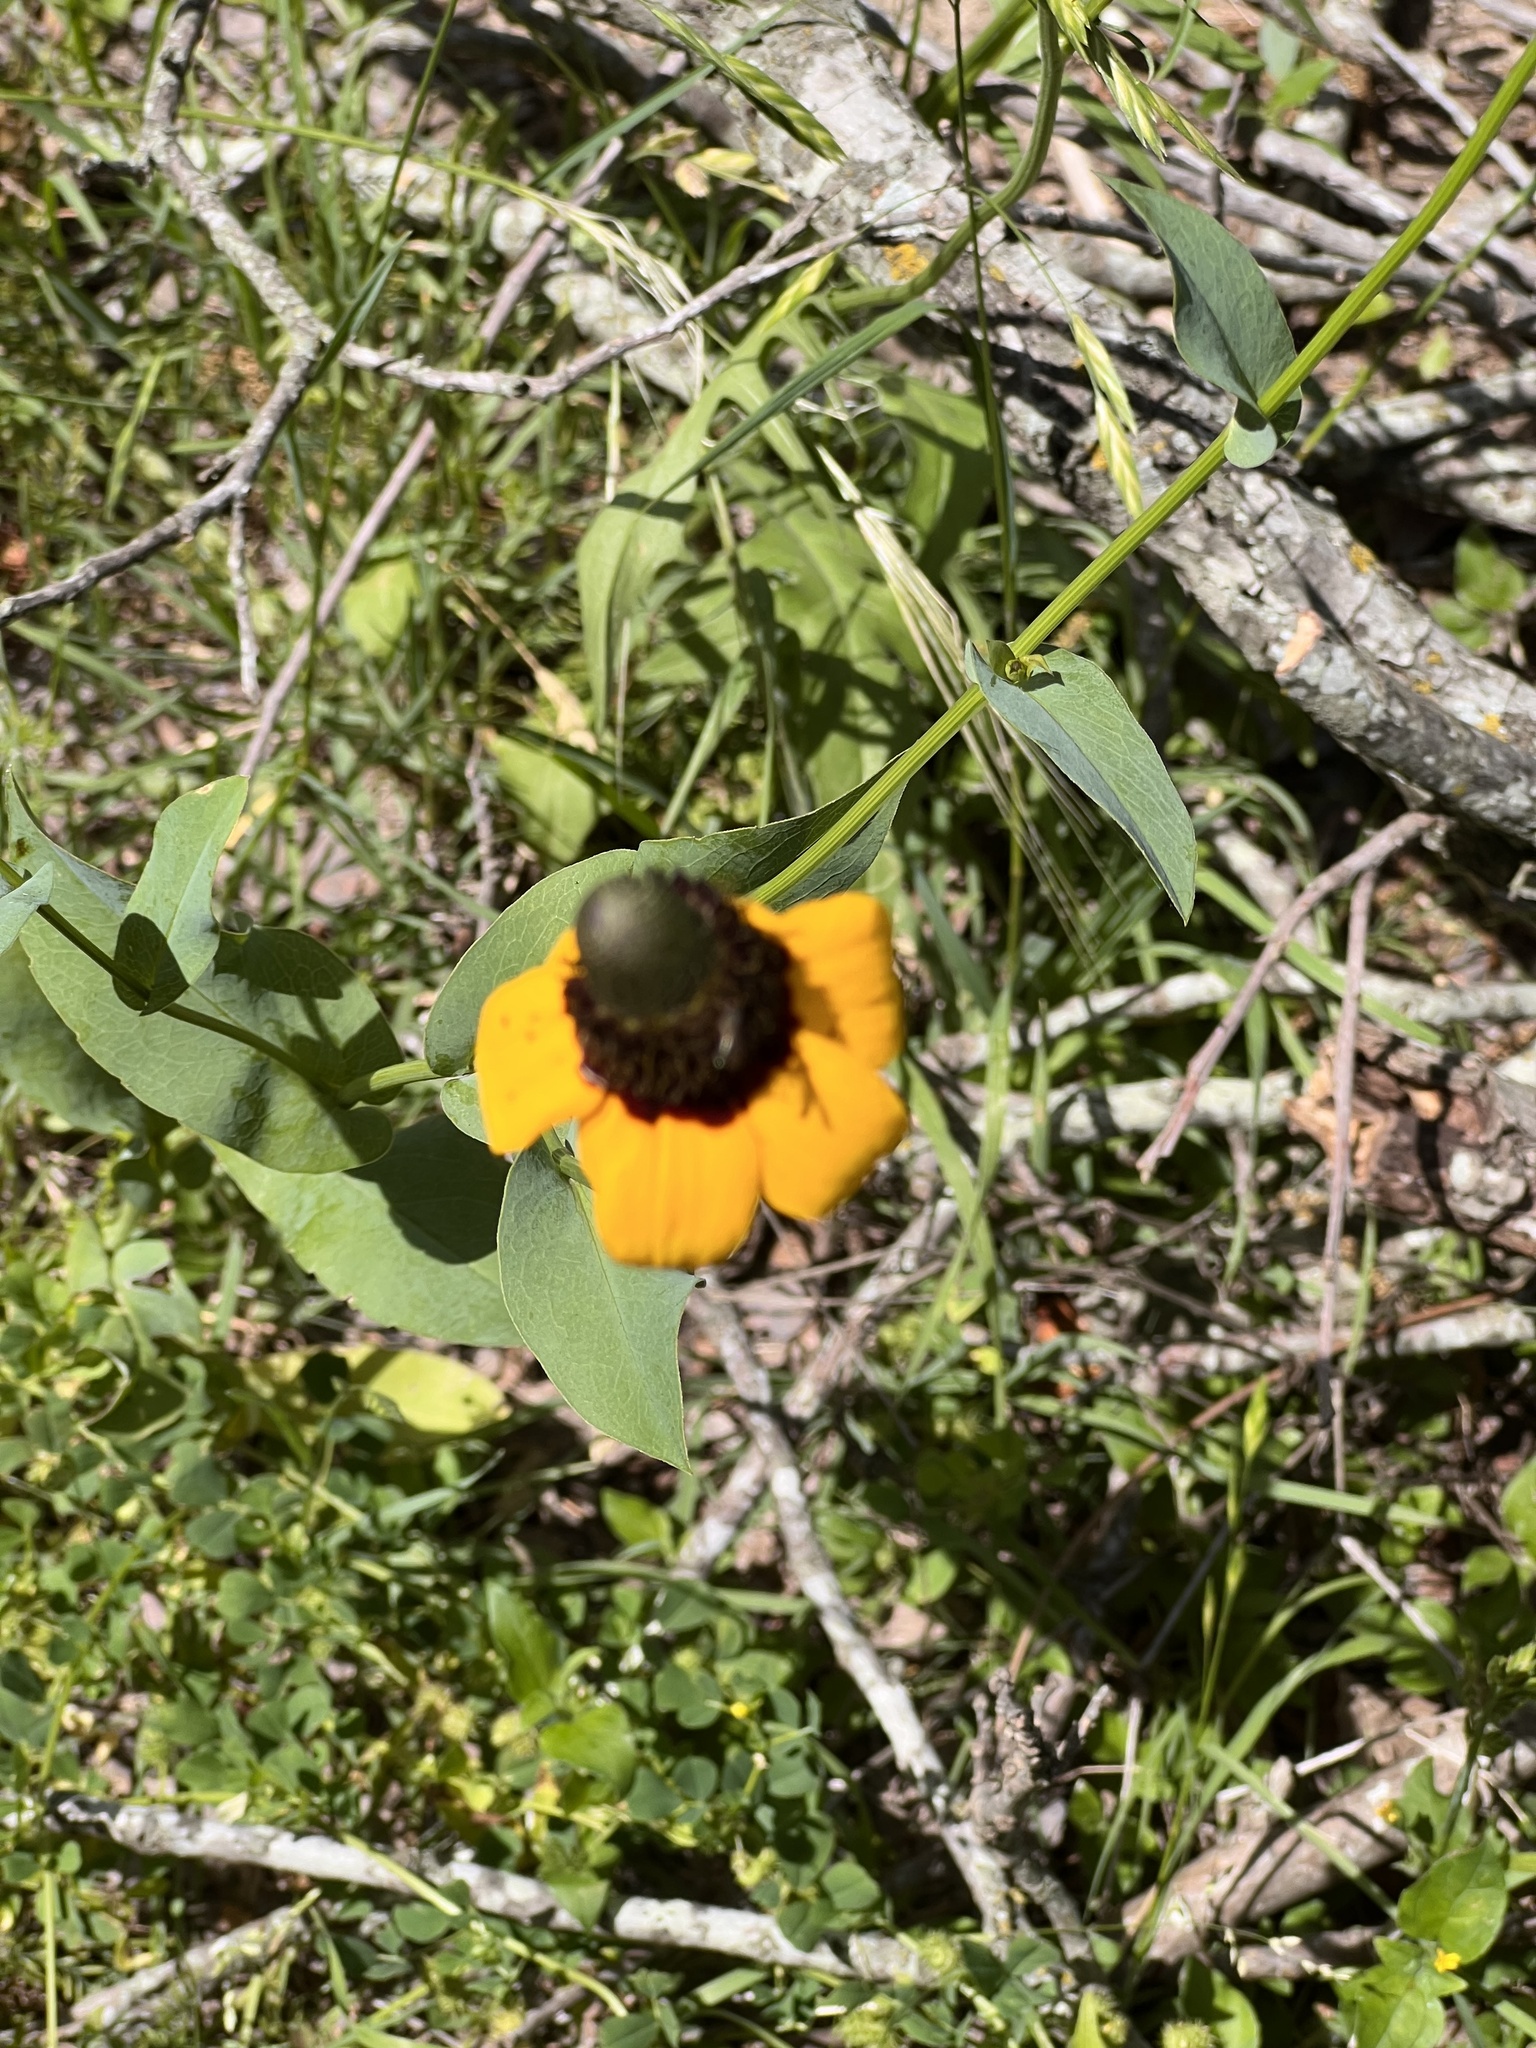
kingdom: Plantae
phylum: Tracheophyta
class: Magnoliopsida
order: Asterales
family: Asteraceae
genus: Rudbeckia
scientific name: Rudbeckia amplexicaulis
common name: Clasping-leaf coneflower
